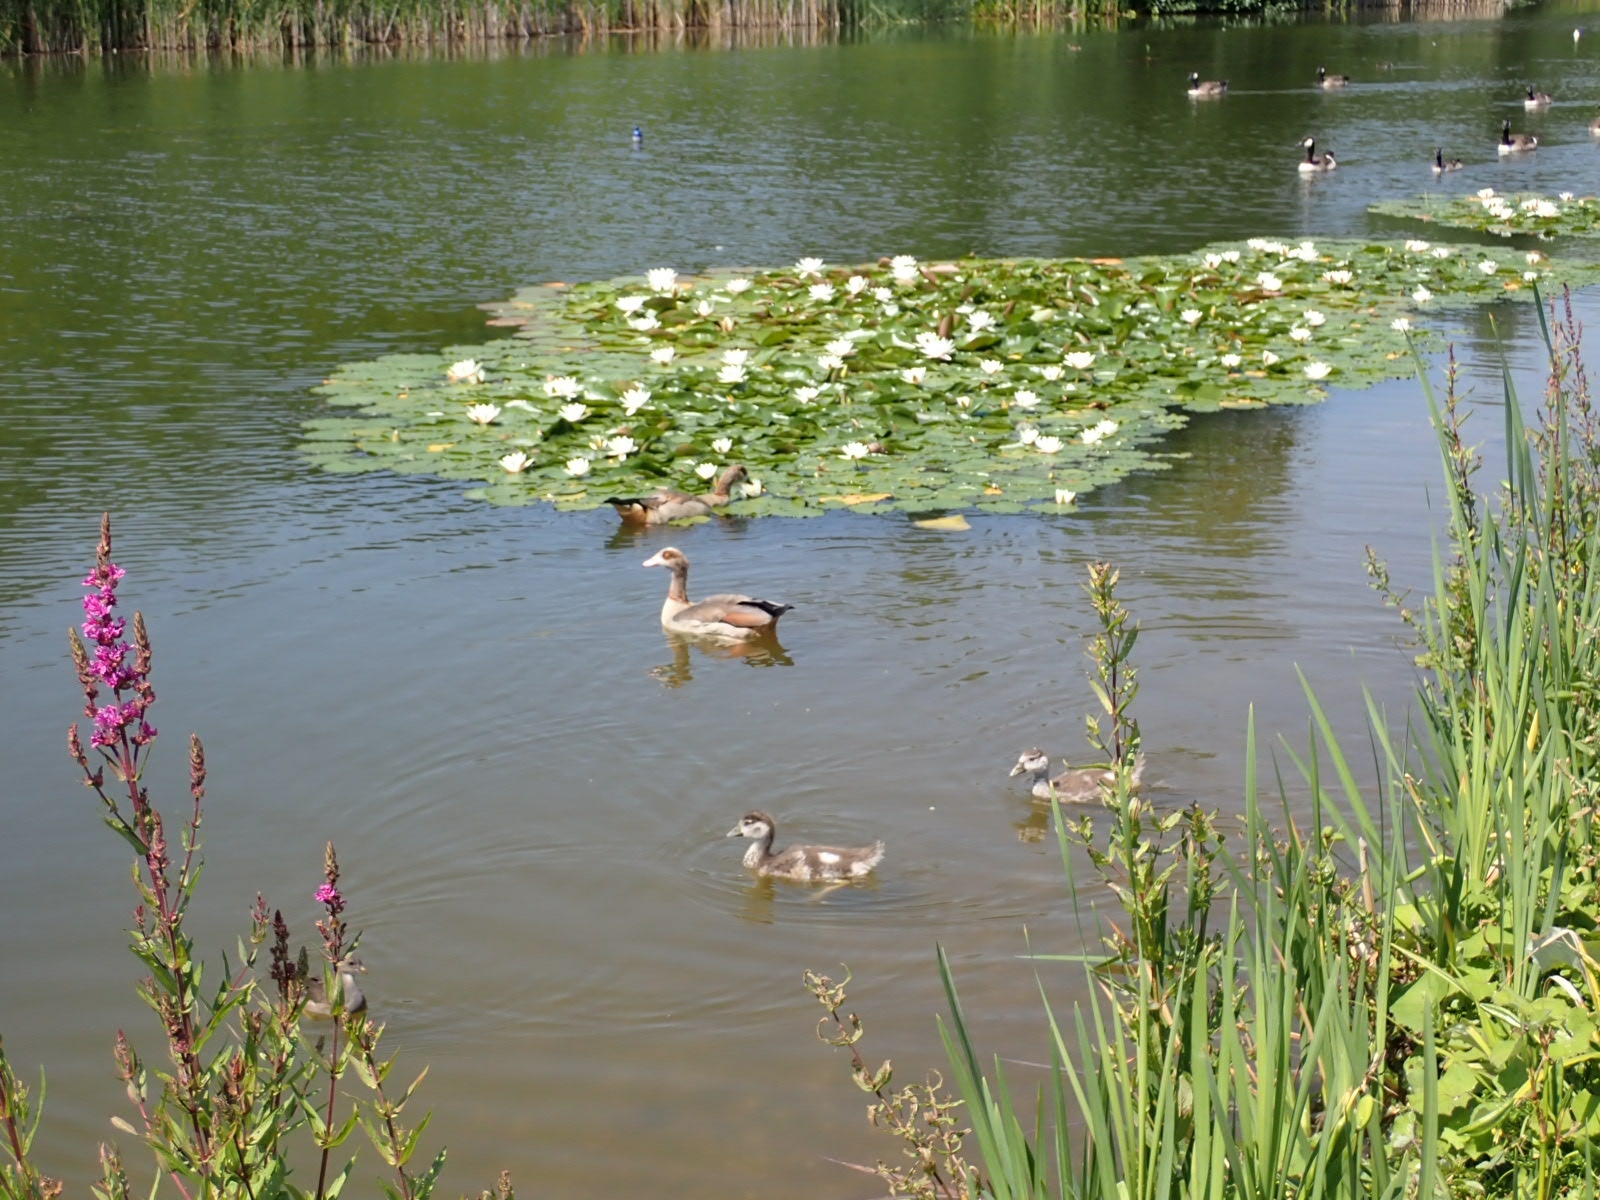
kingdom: Animalia
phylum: Chordata
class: Aves
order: Anseriformes
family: Anatidae
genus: Alopochen
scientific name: Alopochen aegyptiaca
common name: Egyptian goose
